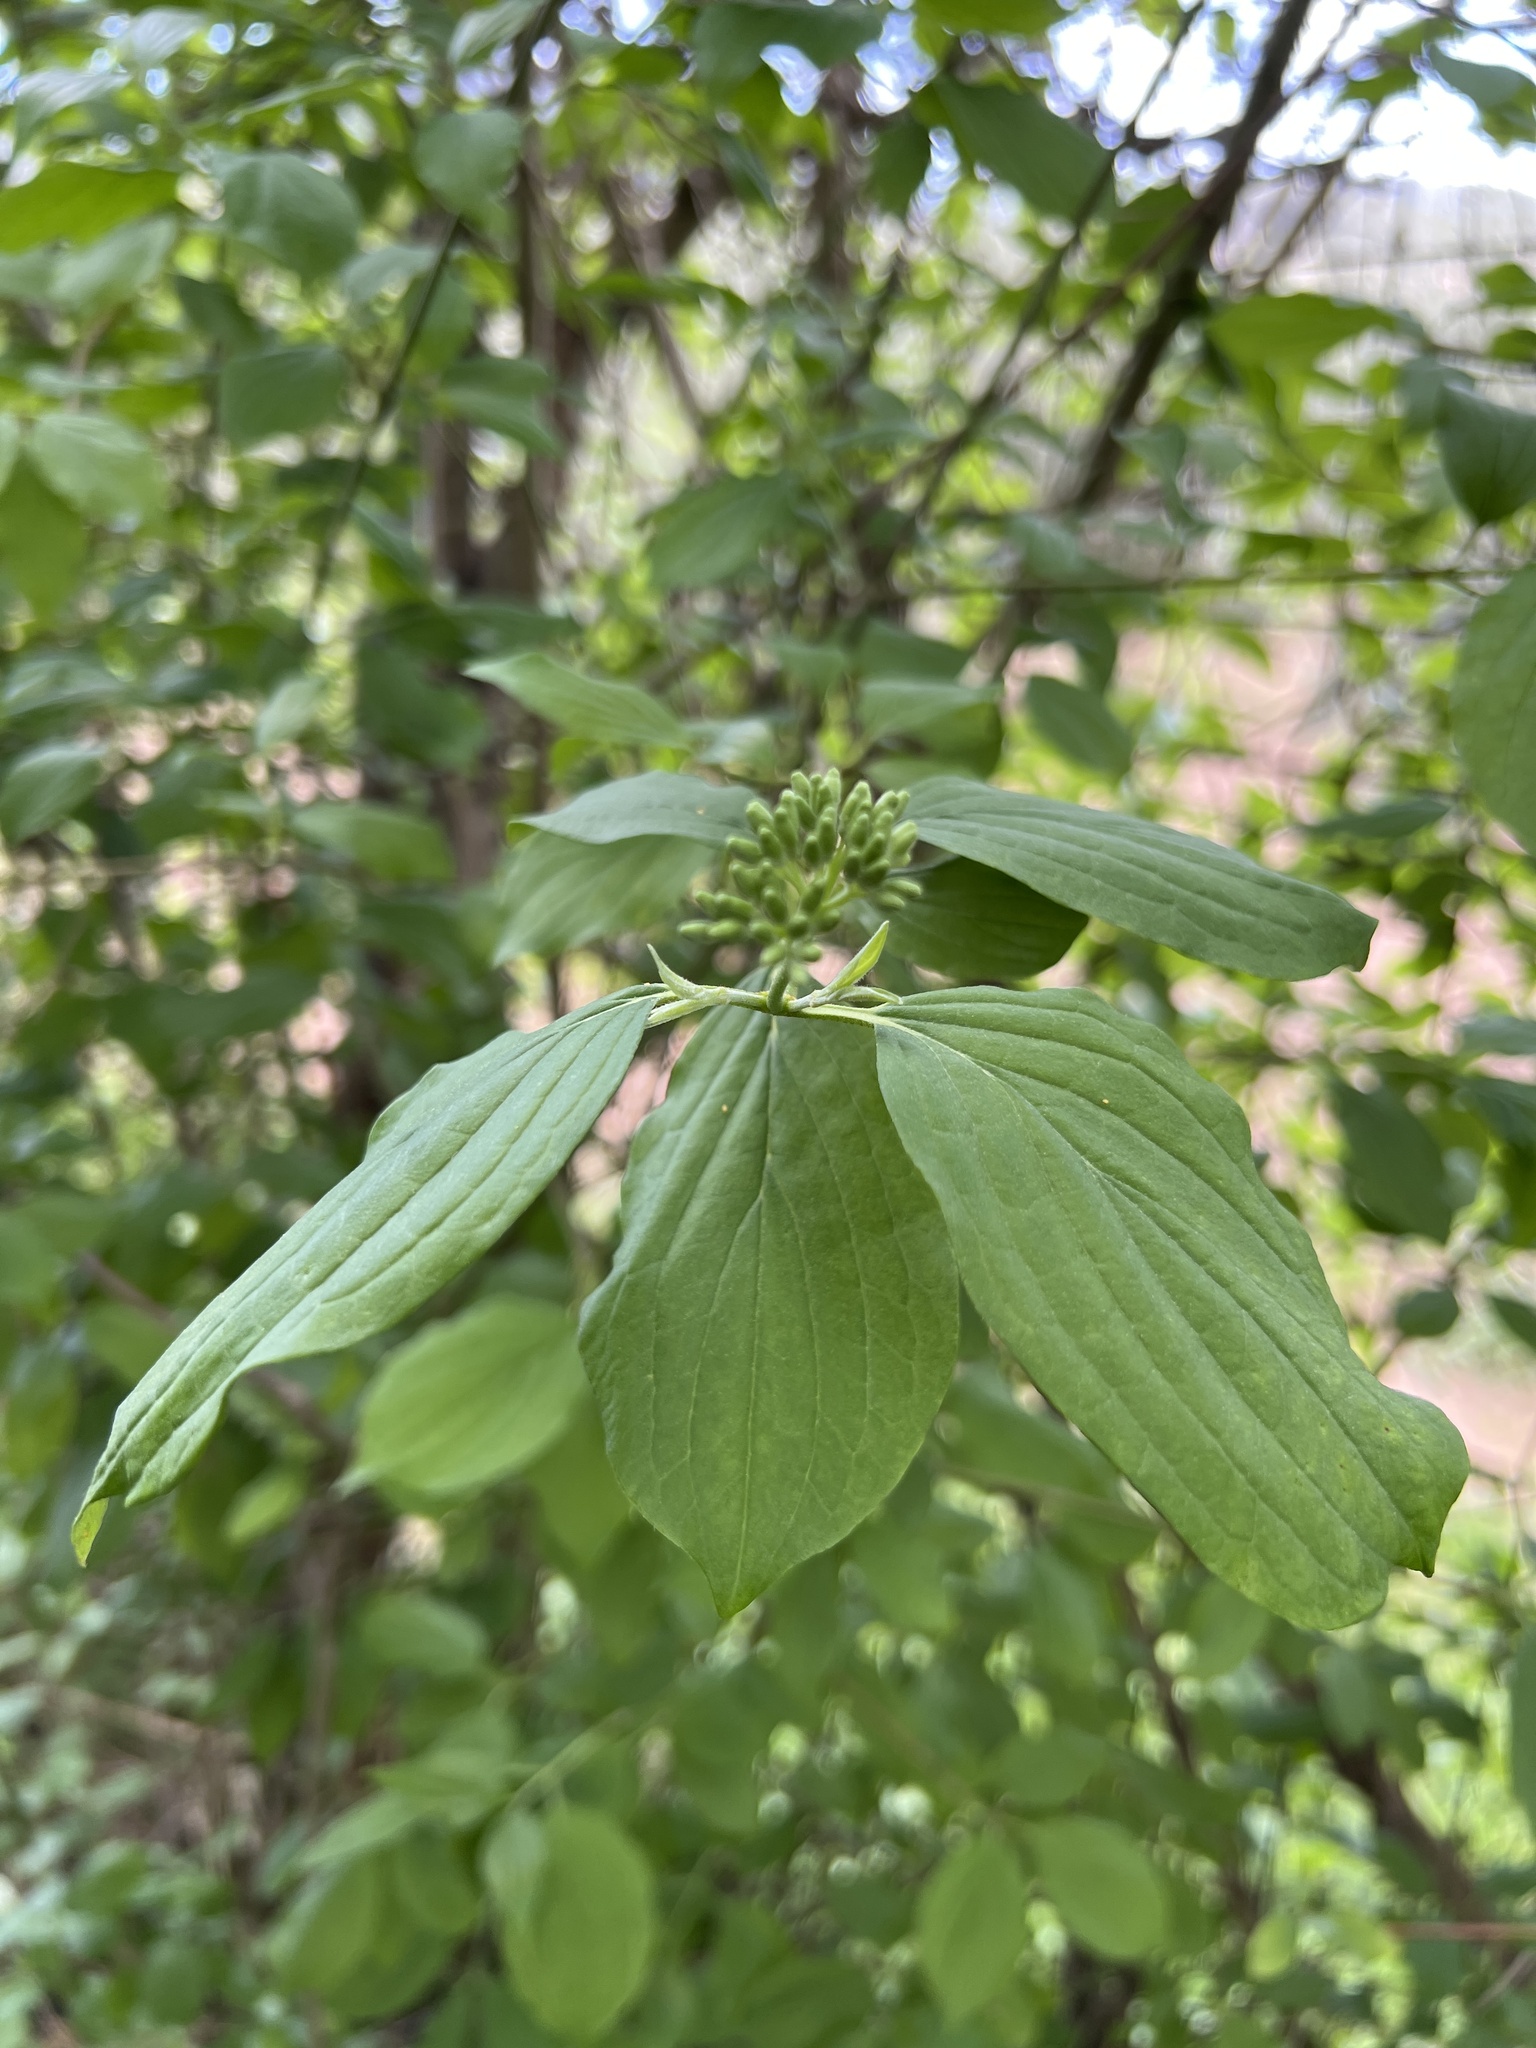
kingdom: Plantae
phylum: Tracheophyta
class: Magnoliopsida
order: Cornales
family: Cornaceae
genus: Cornus
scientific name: Cornus sanguinea
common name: Dogwood
